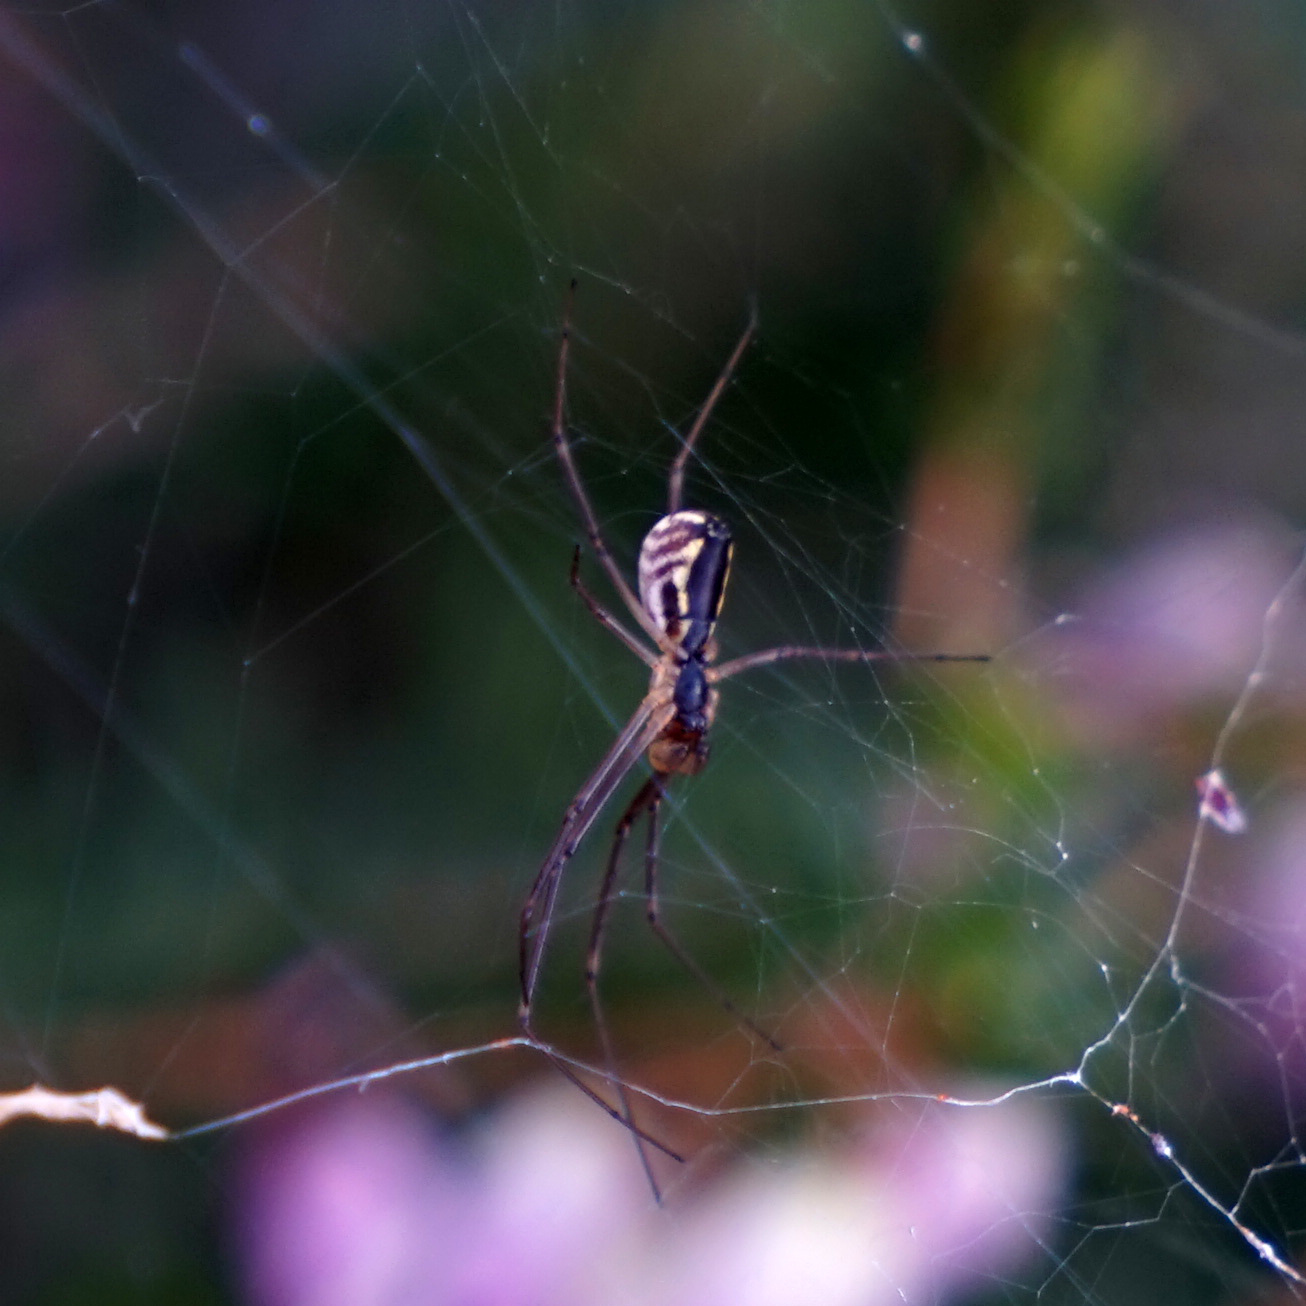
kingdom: Animalia
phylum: Arthropoda
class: Arachnida
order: Araneae
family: Linyphiidae
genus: Neriene
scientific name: Neriene radiata
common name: Filmy dome spider
